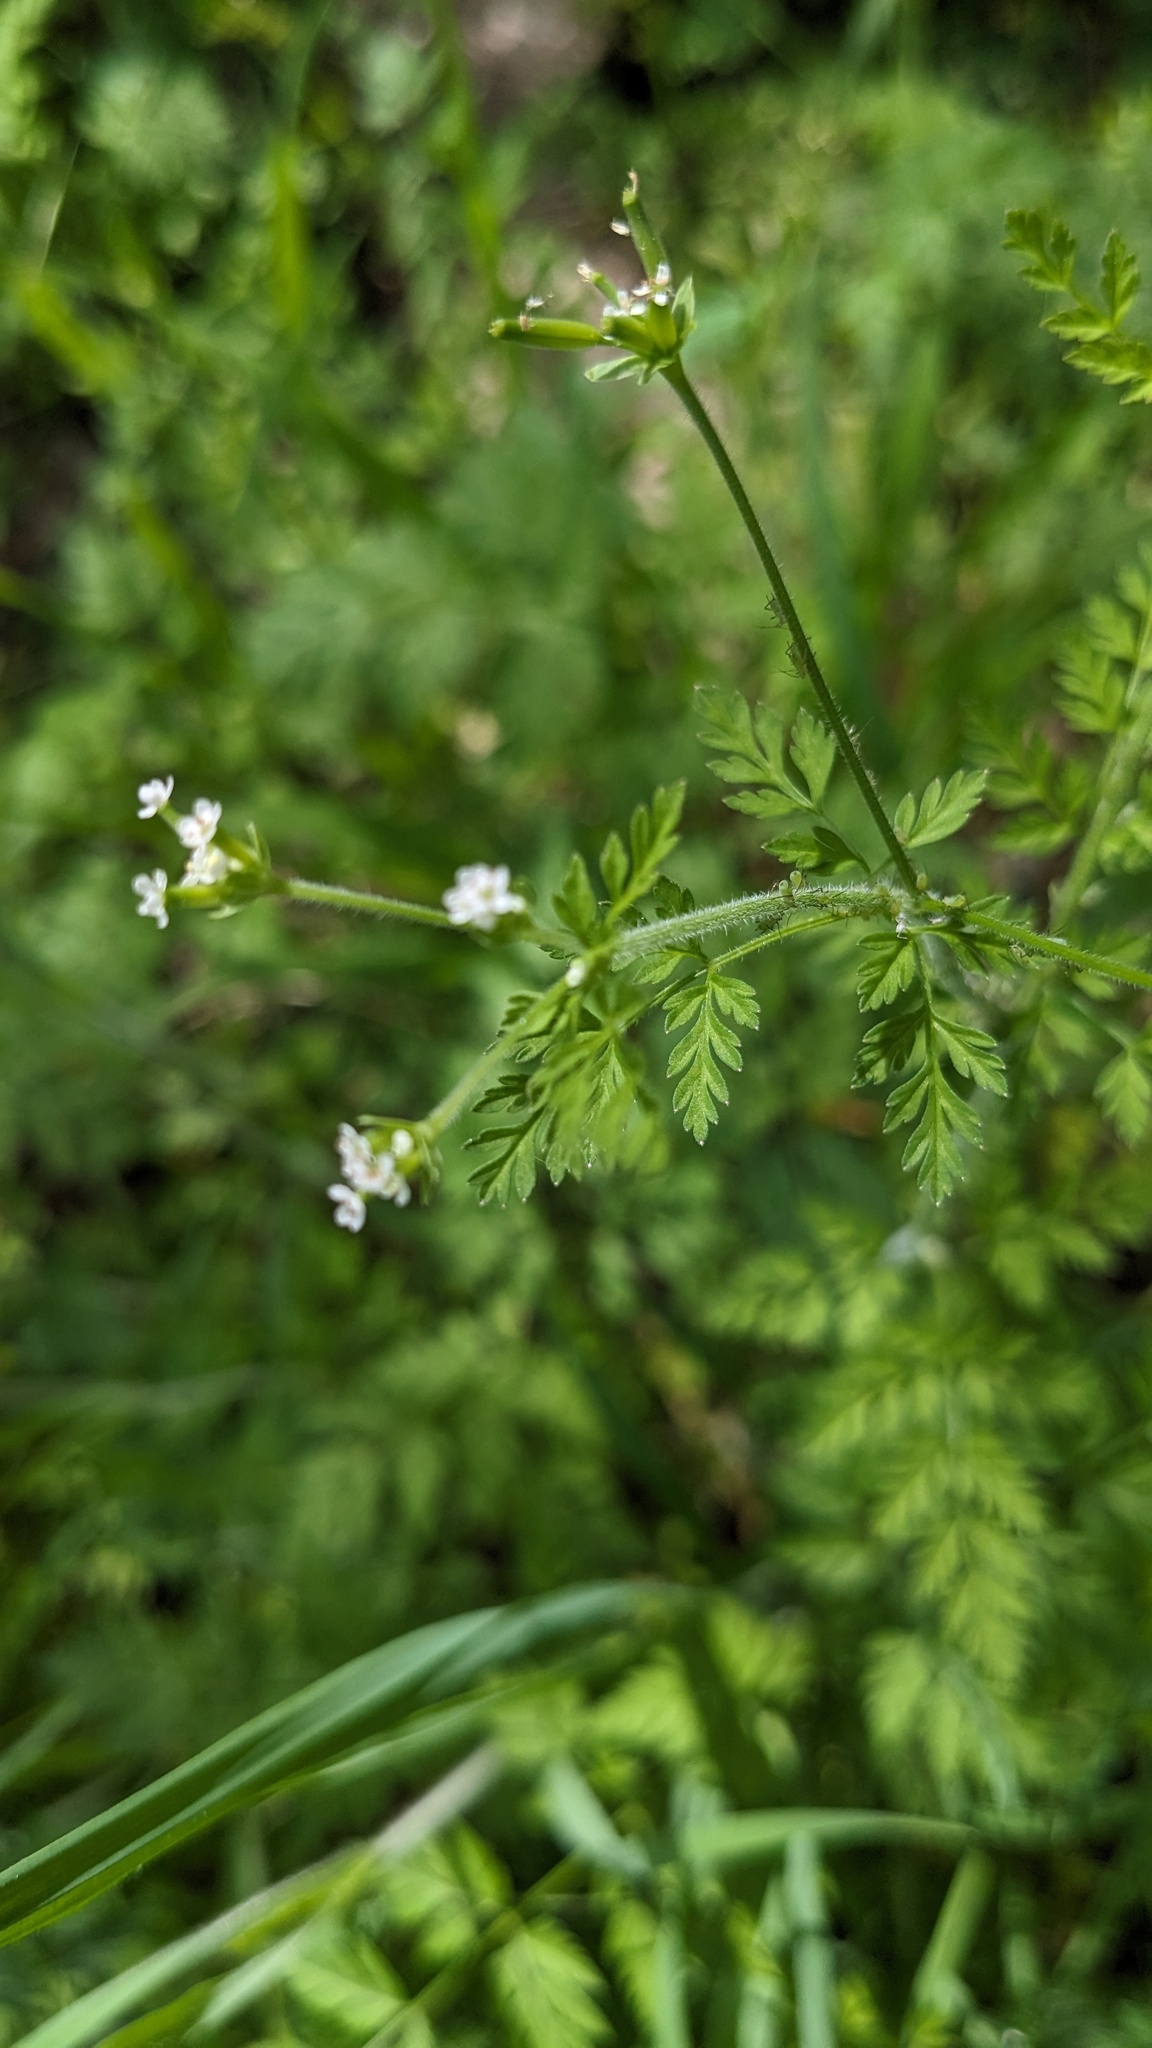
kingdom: Plantae
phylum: Tracheophyta
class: Magnoliopsida
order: Apiales
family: Apiaceae
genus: Chaerophyllum
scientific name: Chaerophyllum tainturieri
